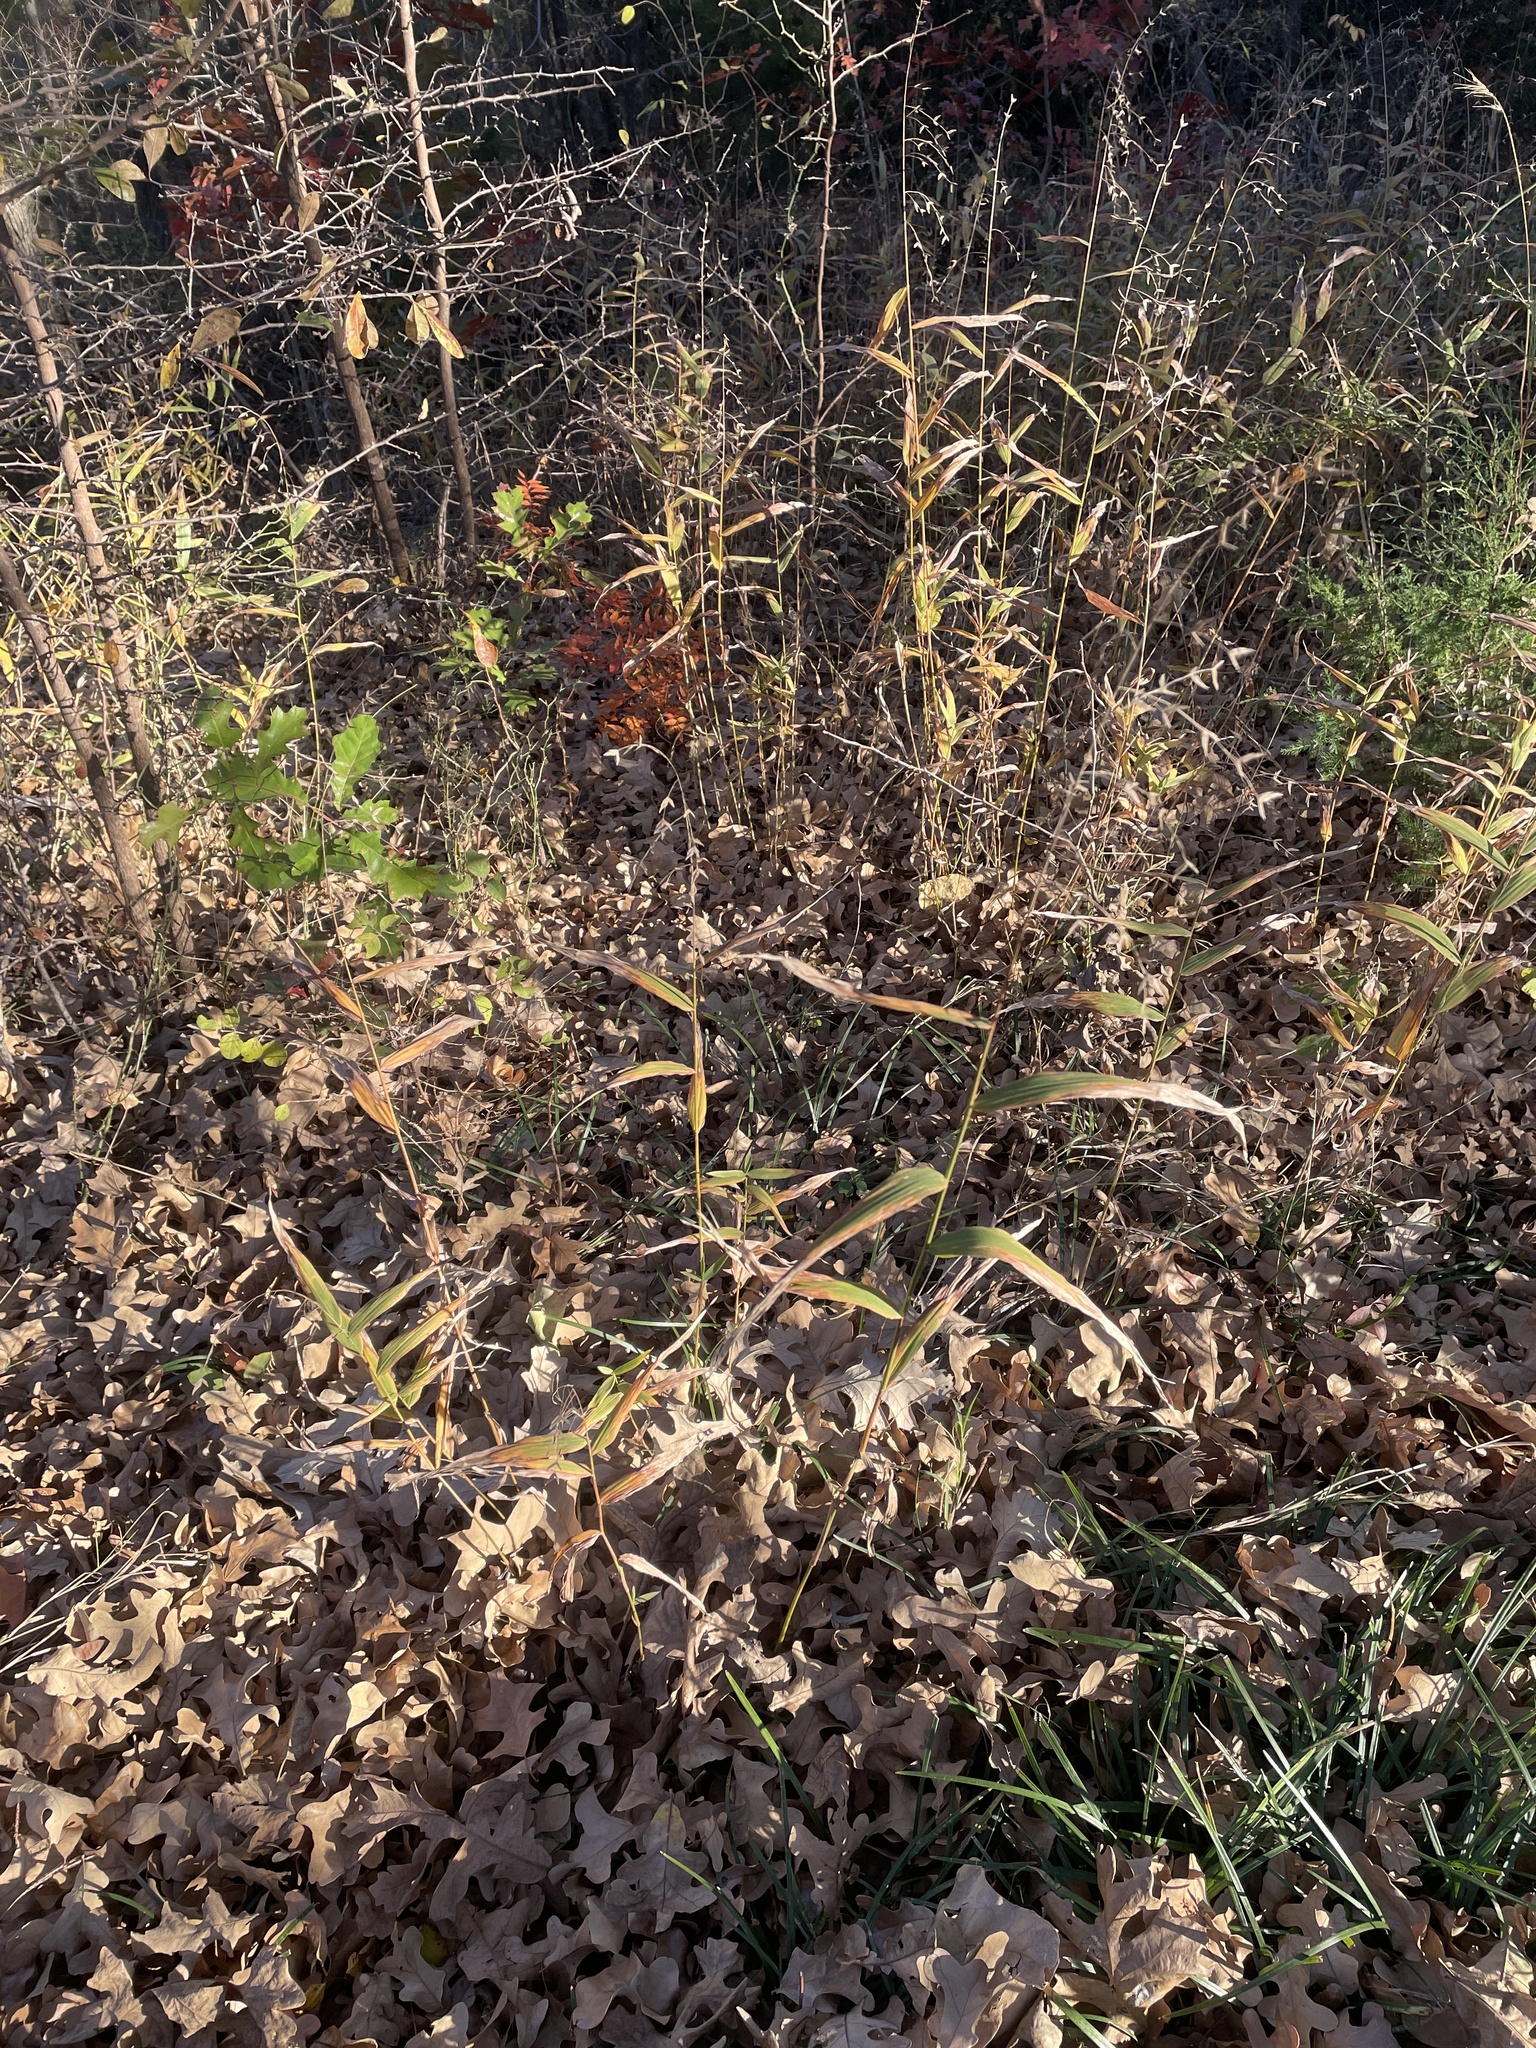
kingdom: Plantae
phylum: Tracheophyta
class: Liliopsida
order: Poales
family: Poaceae
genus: Chasmanthium
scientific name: Chasmanthium latifolium
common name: Broad-leaved chasmanthium
